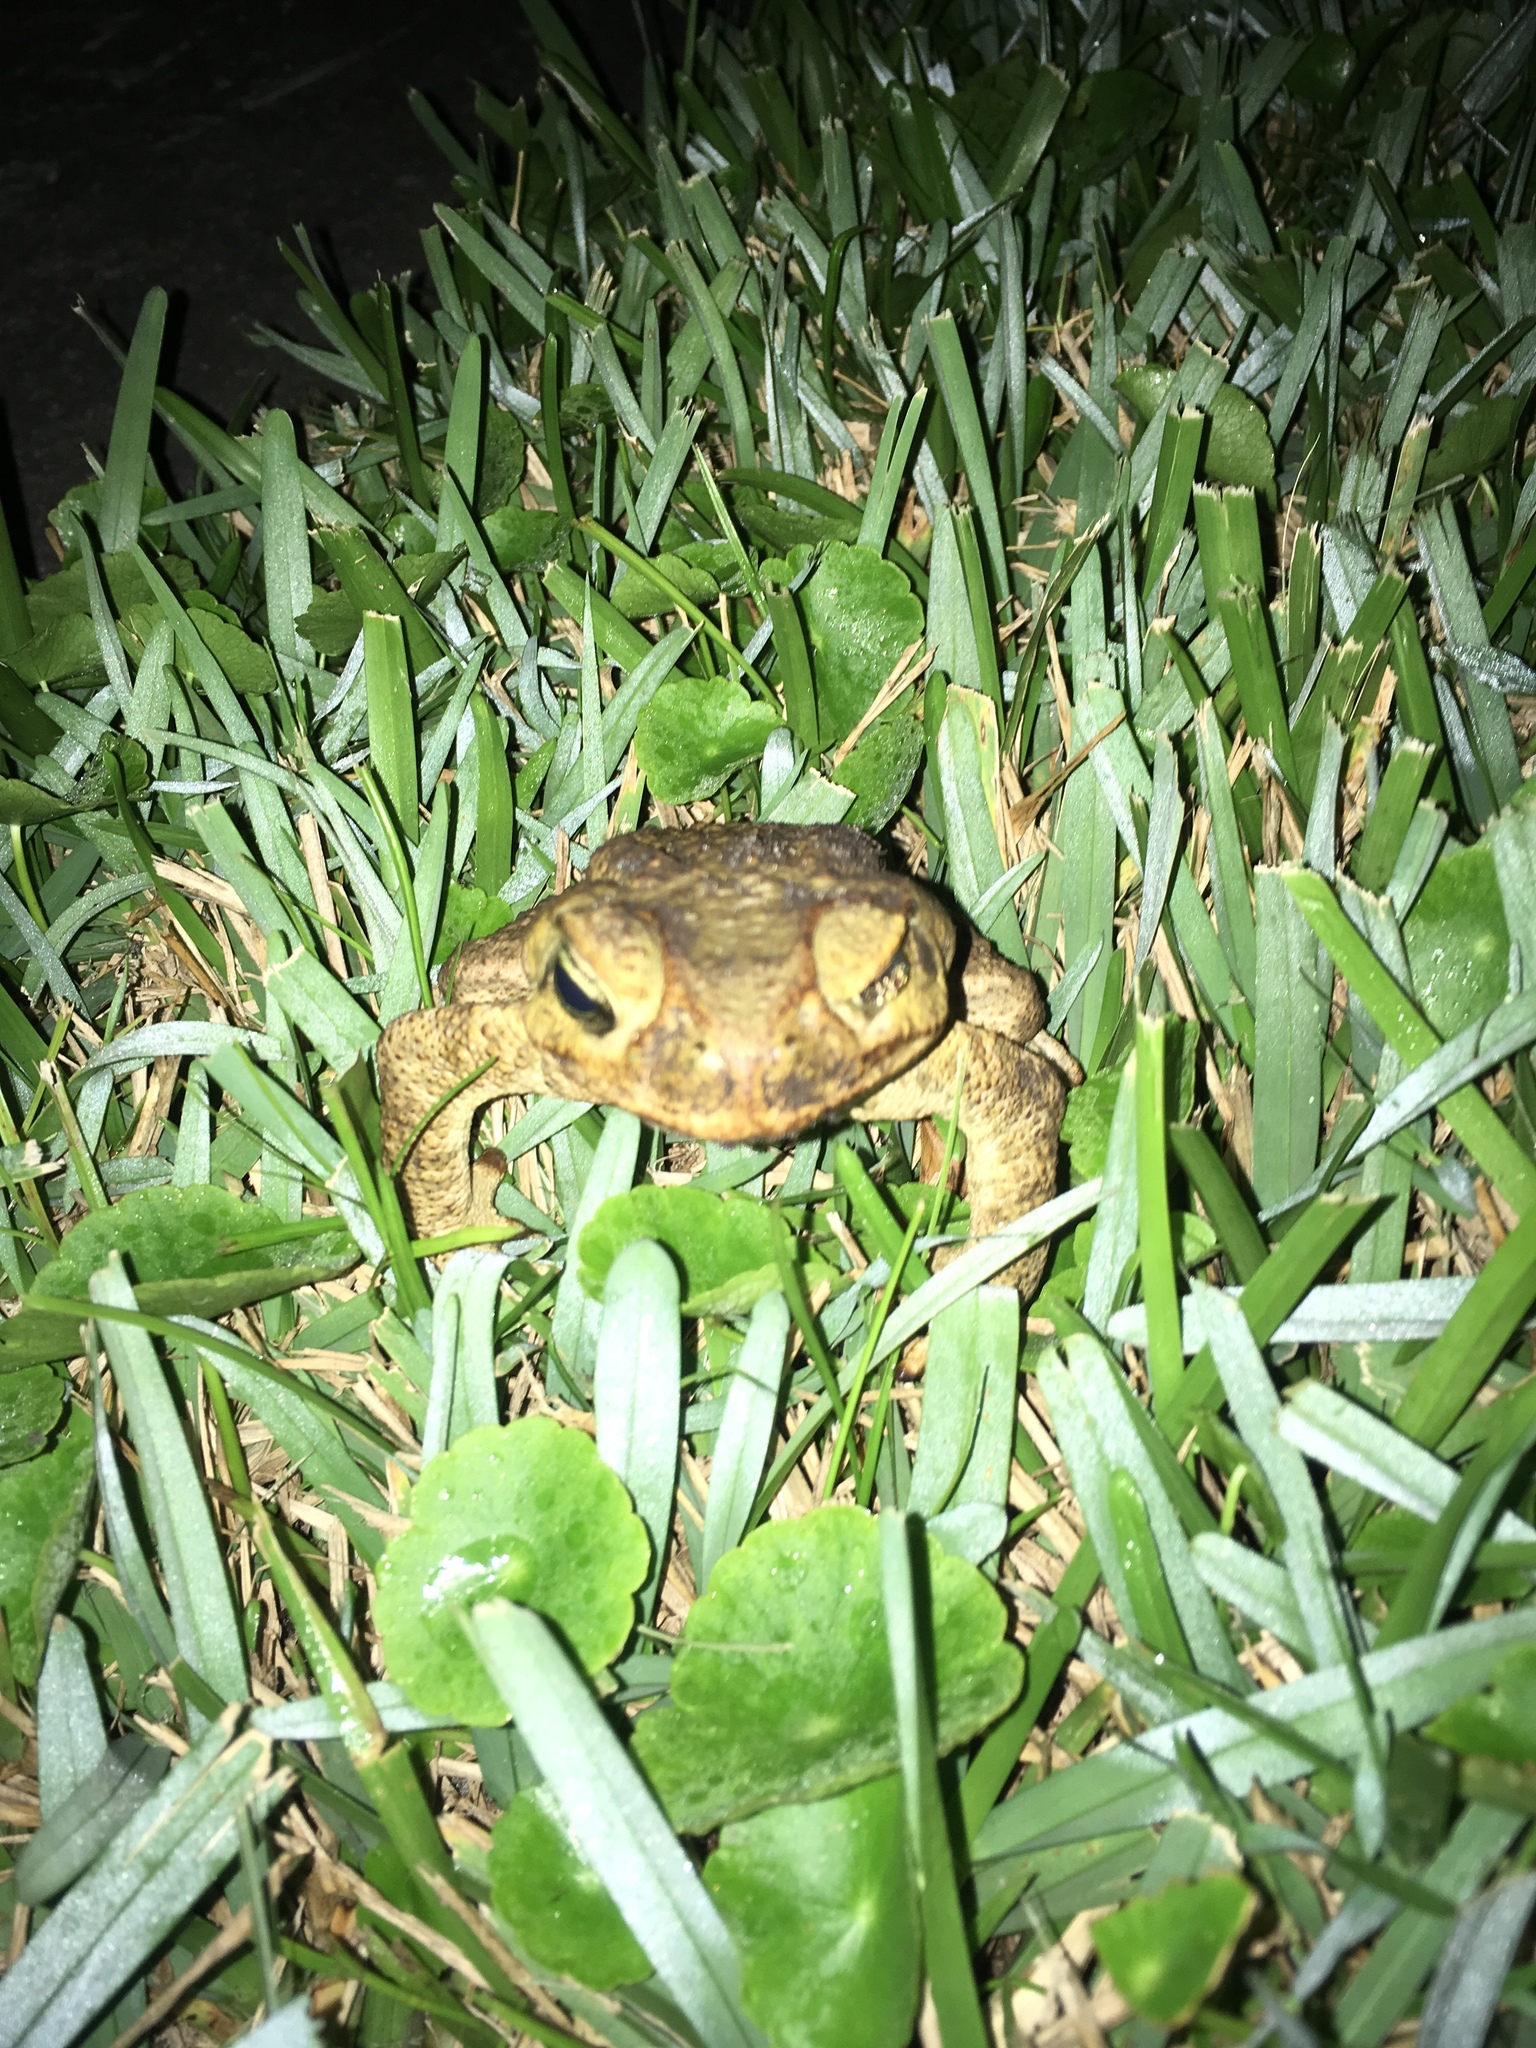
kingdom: Animalia
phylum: Chordata
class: Amphibia
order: Anura
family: Bufonidae
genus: Rhinella
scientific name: Rhinella marina
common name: Cane toad
